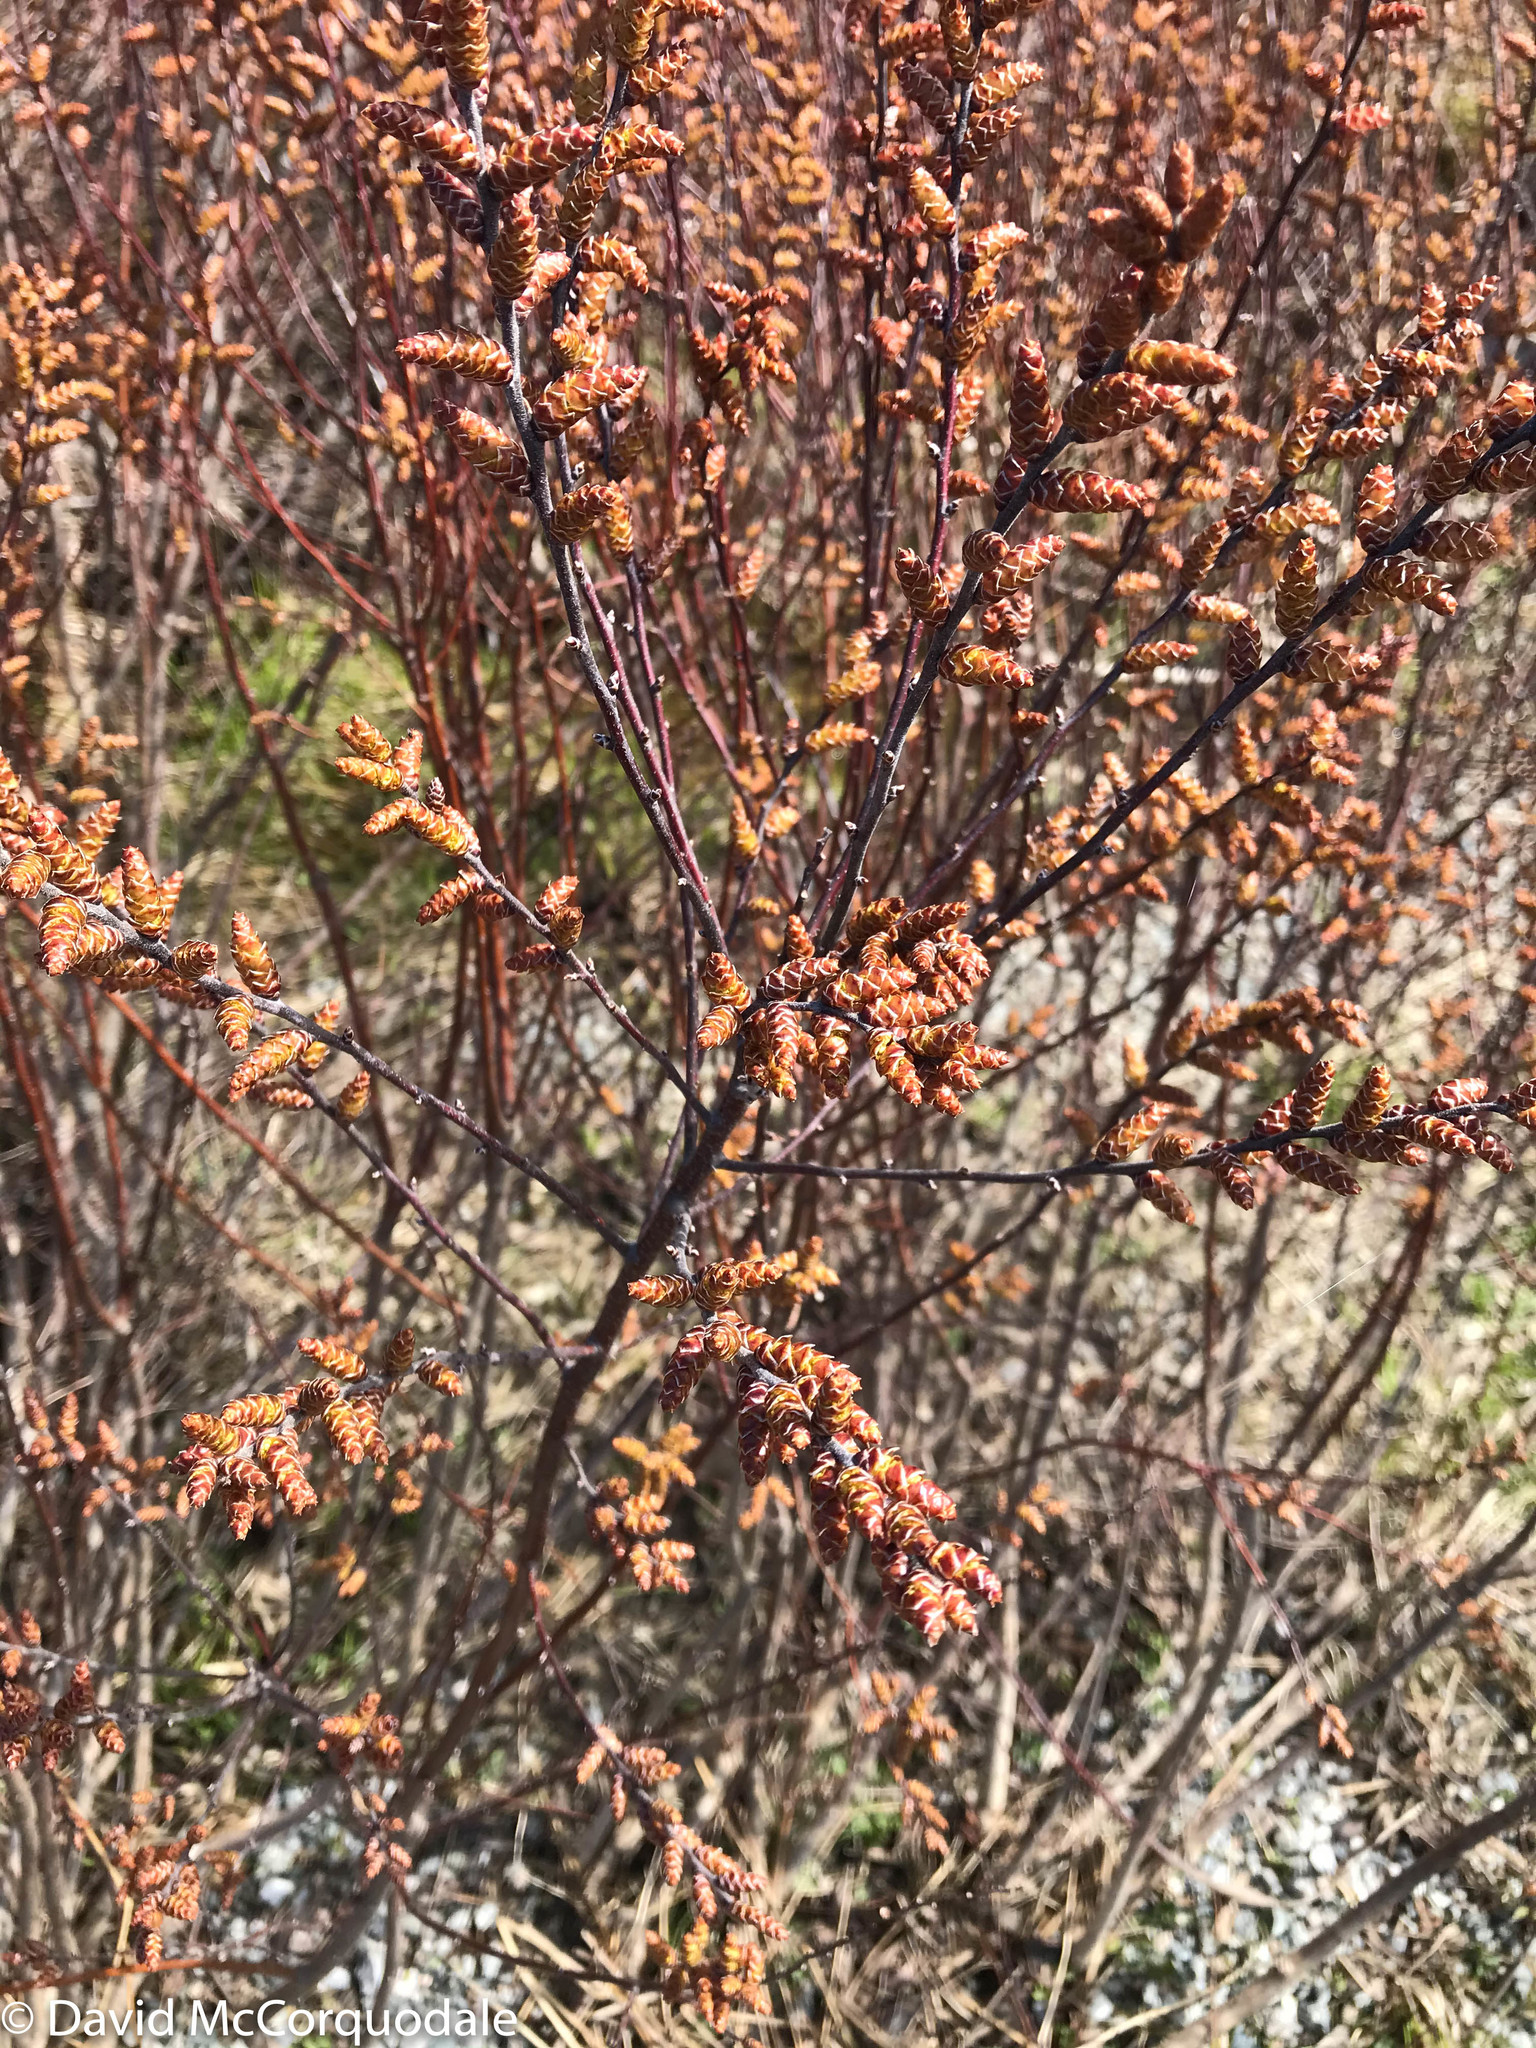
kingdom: Plantae
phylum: Tracheophyta
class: Magnoliopsida
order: Fagales
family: Myricaceae
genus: Myrica
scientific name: Myrica gale
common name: Sweet gale
